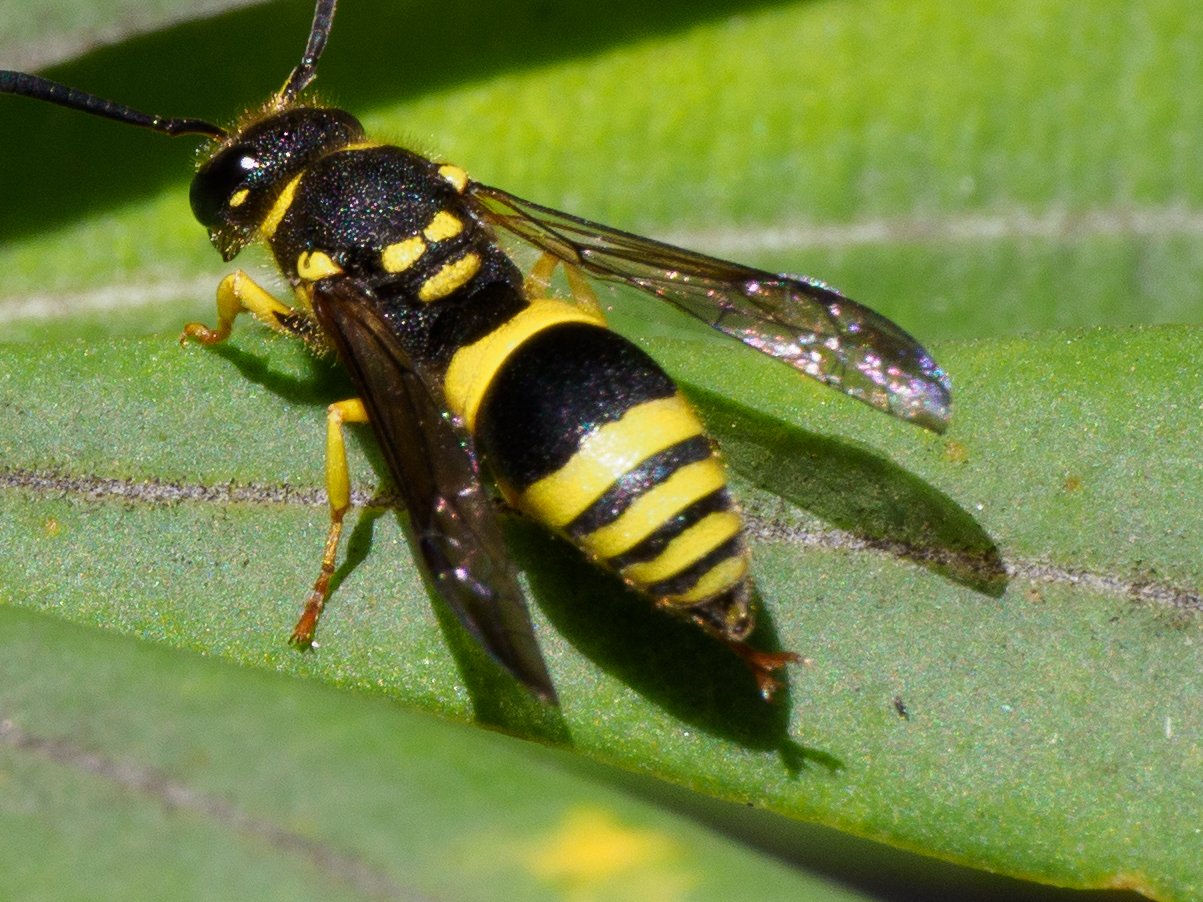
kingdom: Animalia
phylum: Arthropoda
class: Insecta
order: Hymenoptera
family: Vespidae
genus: Ancistrocerus
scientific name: Ancistrocerus gazella
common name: European tube wasp
